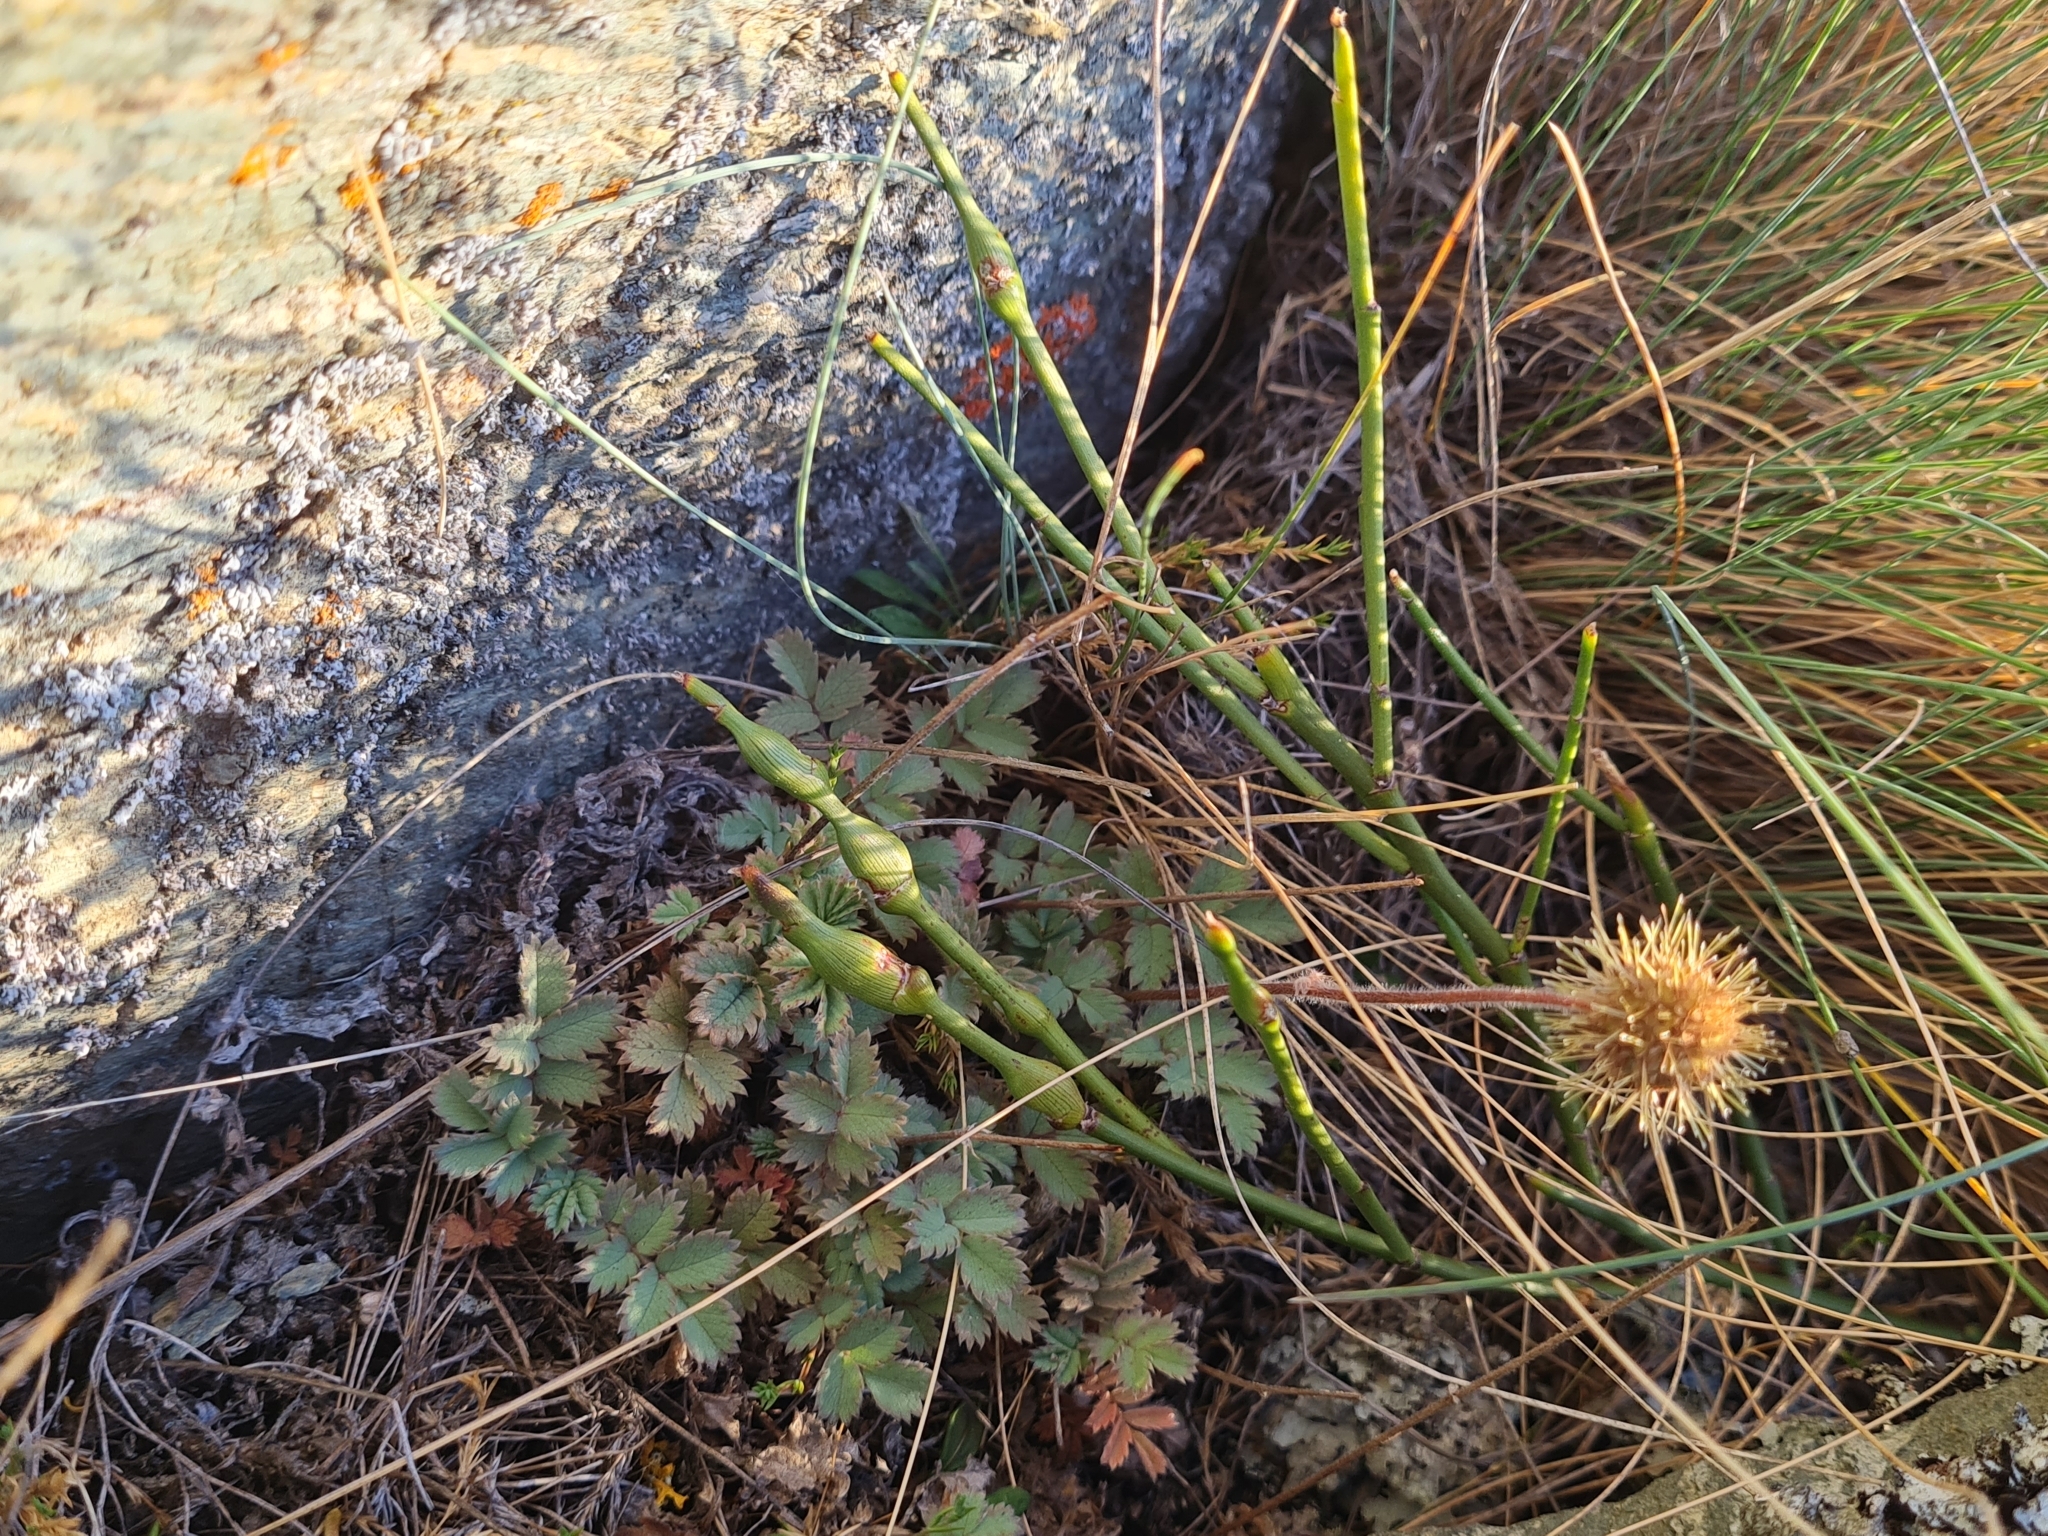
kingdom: Plantae
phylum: Tracheophyta
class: Magnoliopsida
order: Rosales
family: Rosaceae
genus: Acaena
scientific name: Acaena caesiiglauca
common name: Glaucous pirri-pirri-bur
